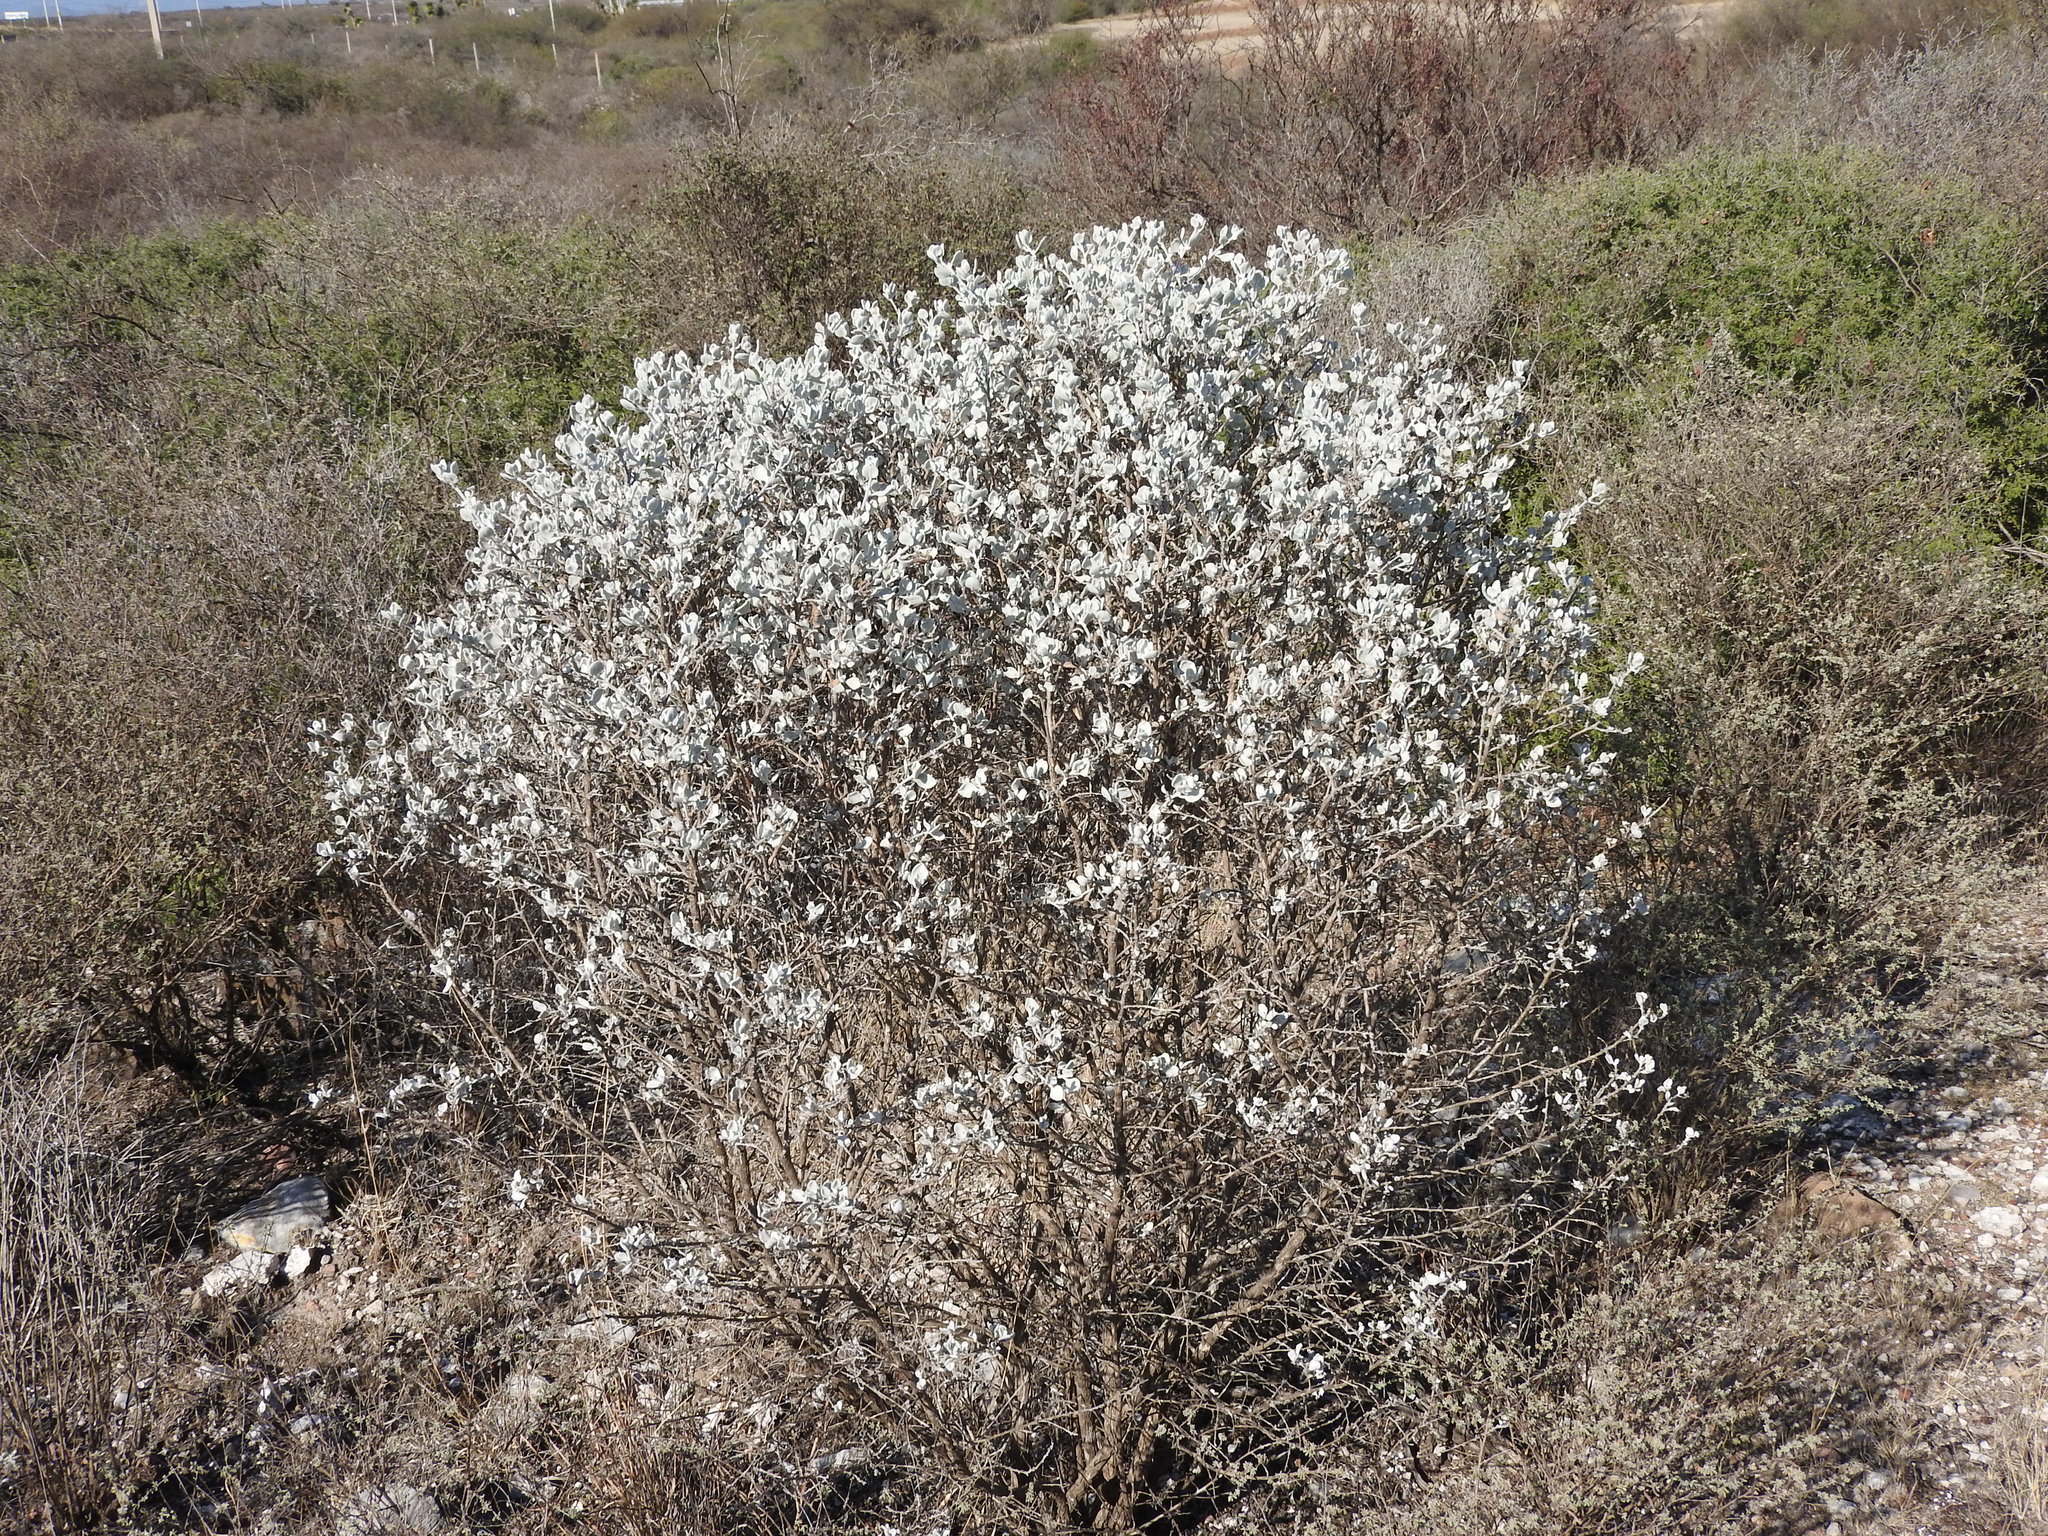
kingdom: Plantae
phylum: Tracheophyta
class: Magnoliopsida
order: Lamiales
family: Scrophulariaceae
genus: Leucophyllum
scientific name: Leucophyllum ambiguum
